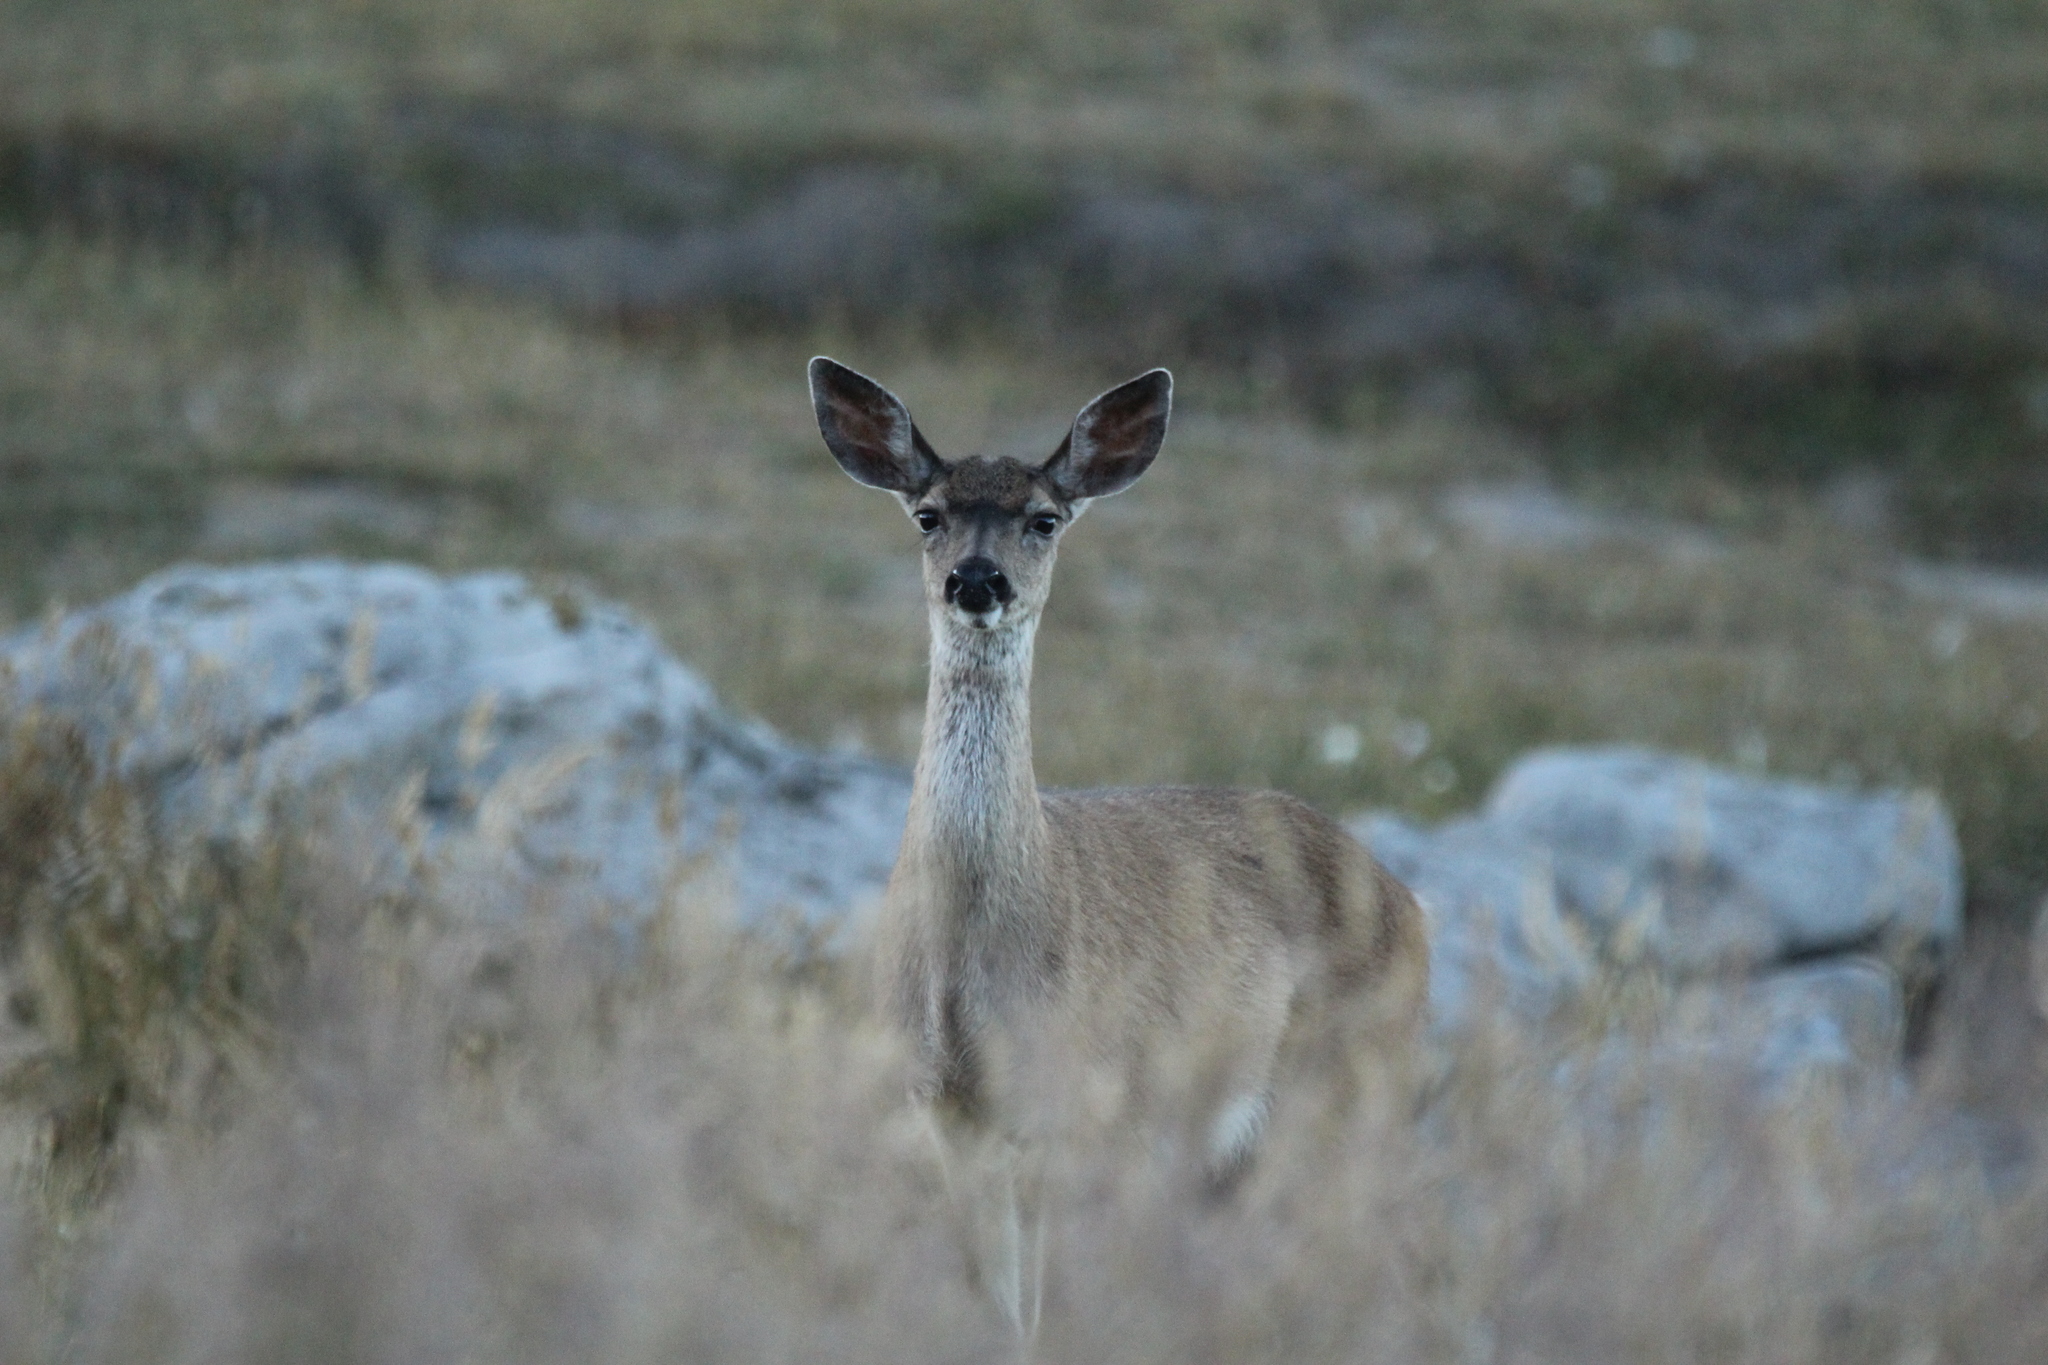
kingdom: Animalia
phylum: Chordata
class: Mammalia
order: Artiodactyla
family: Cervidae
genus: Odocoileus
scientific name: Odocoileus hemionus
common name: Mule deer
